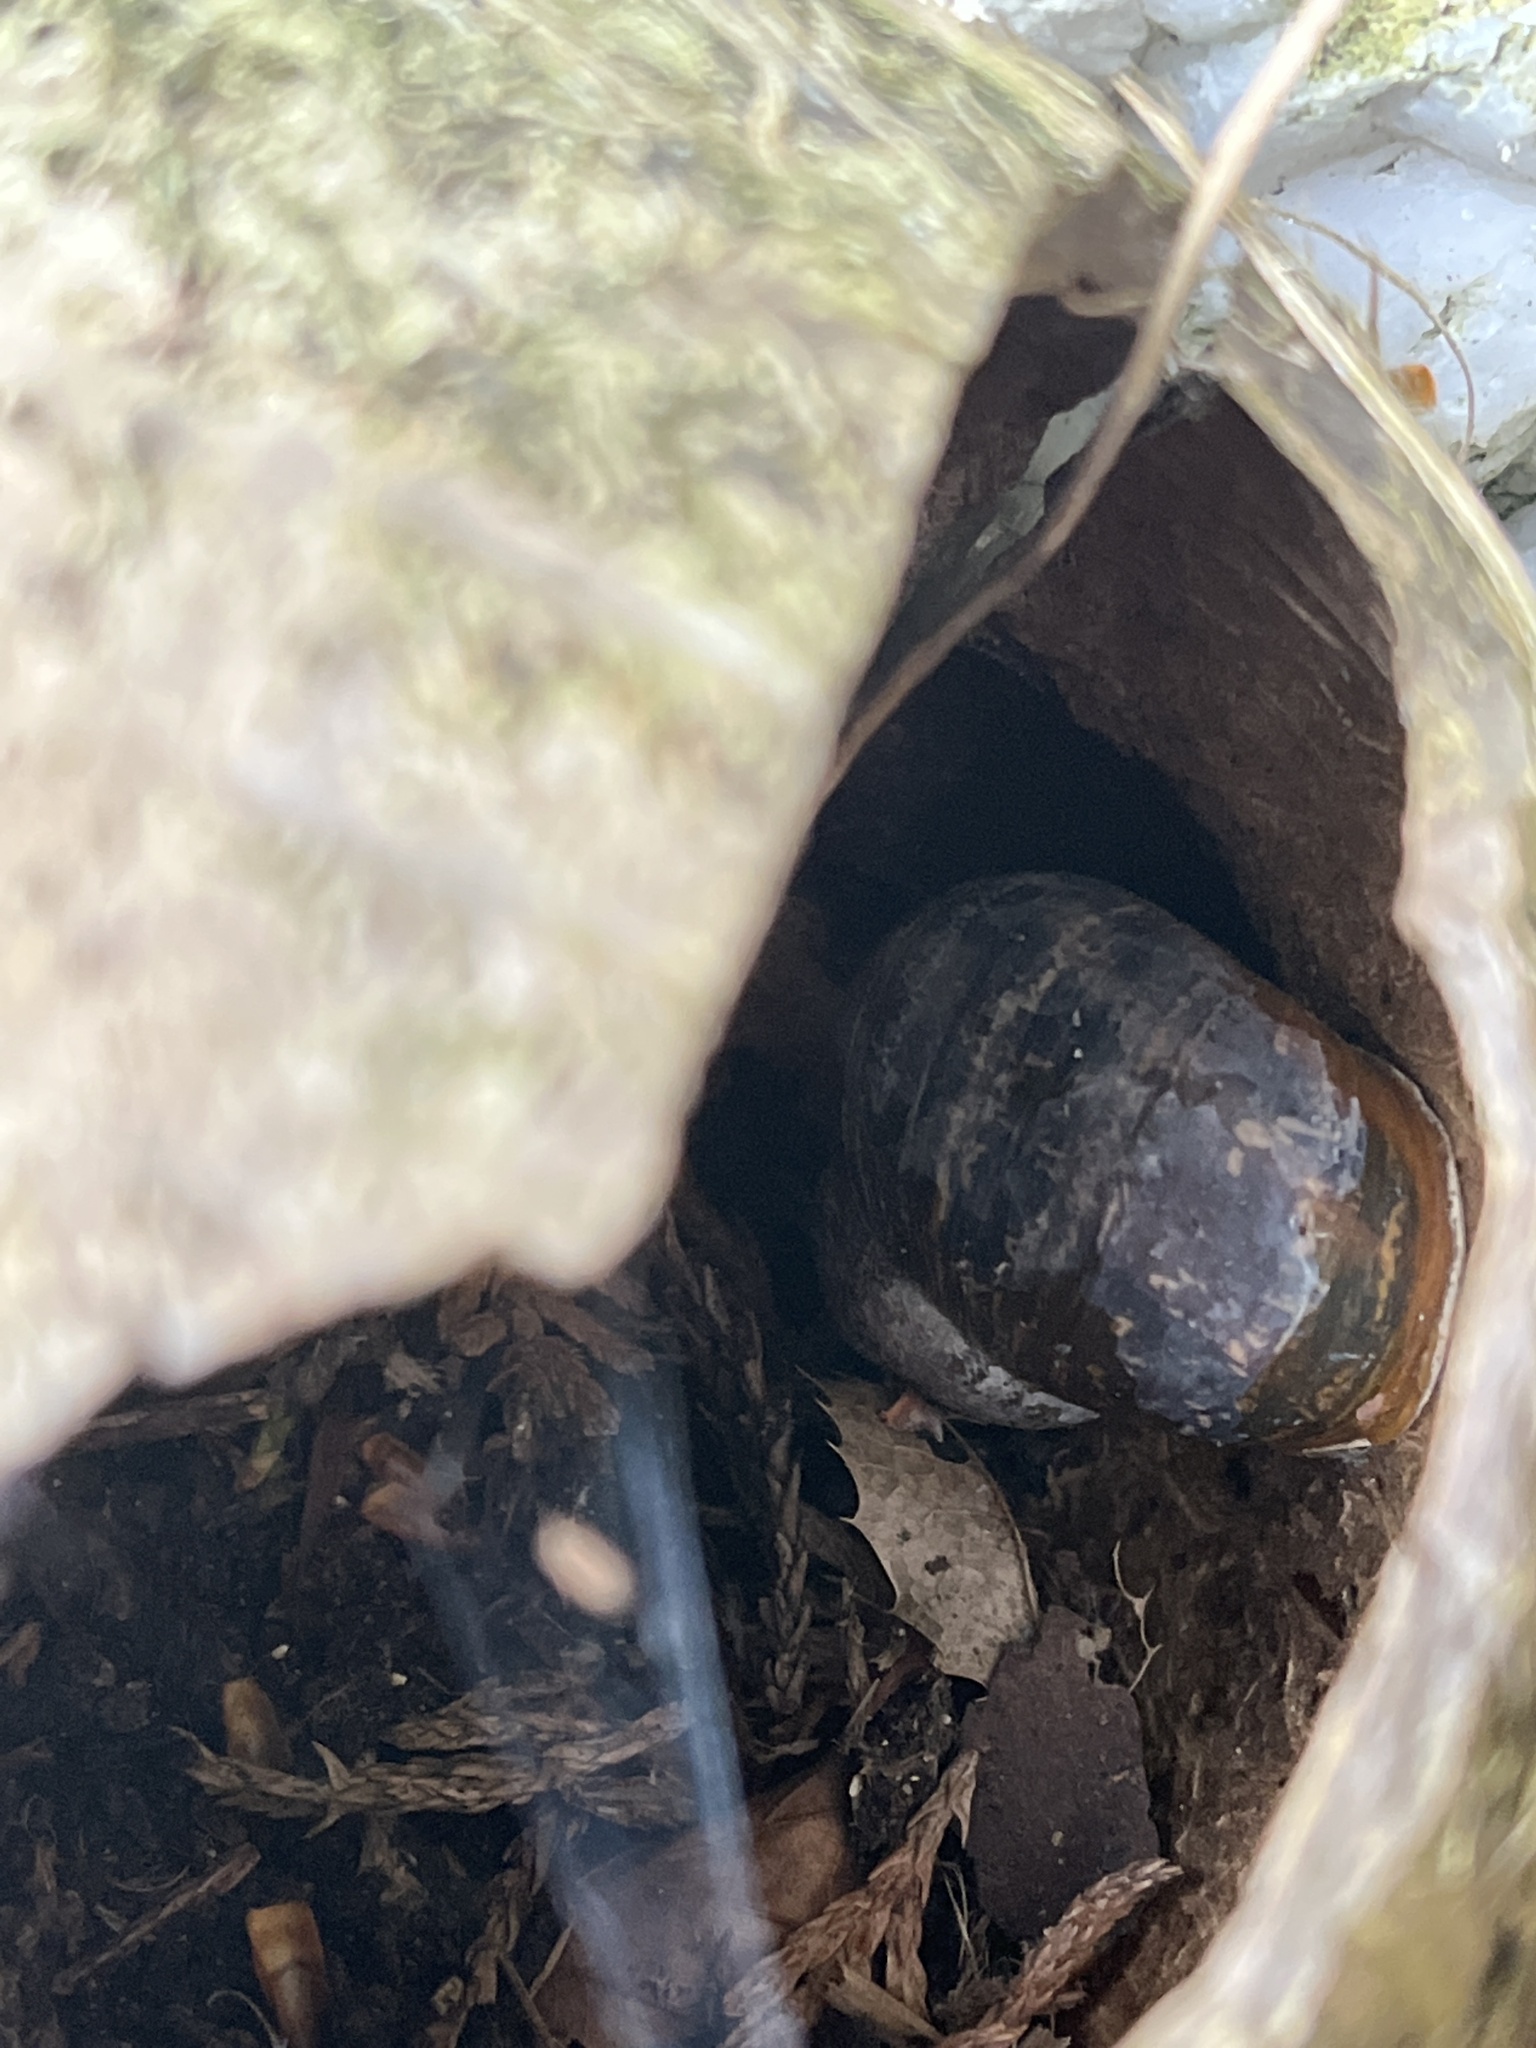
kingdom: Animalia
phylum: Mollusca
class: Gastropoda
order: Stylommatophora
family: Helicidae
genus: Cornu
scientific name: Cornu aspersum
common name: Brown garden snail
